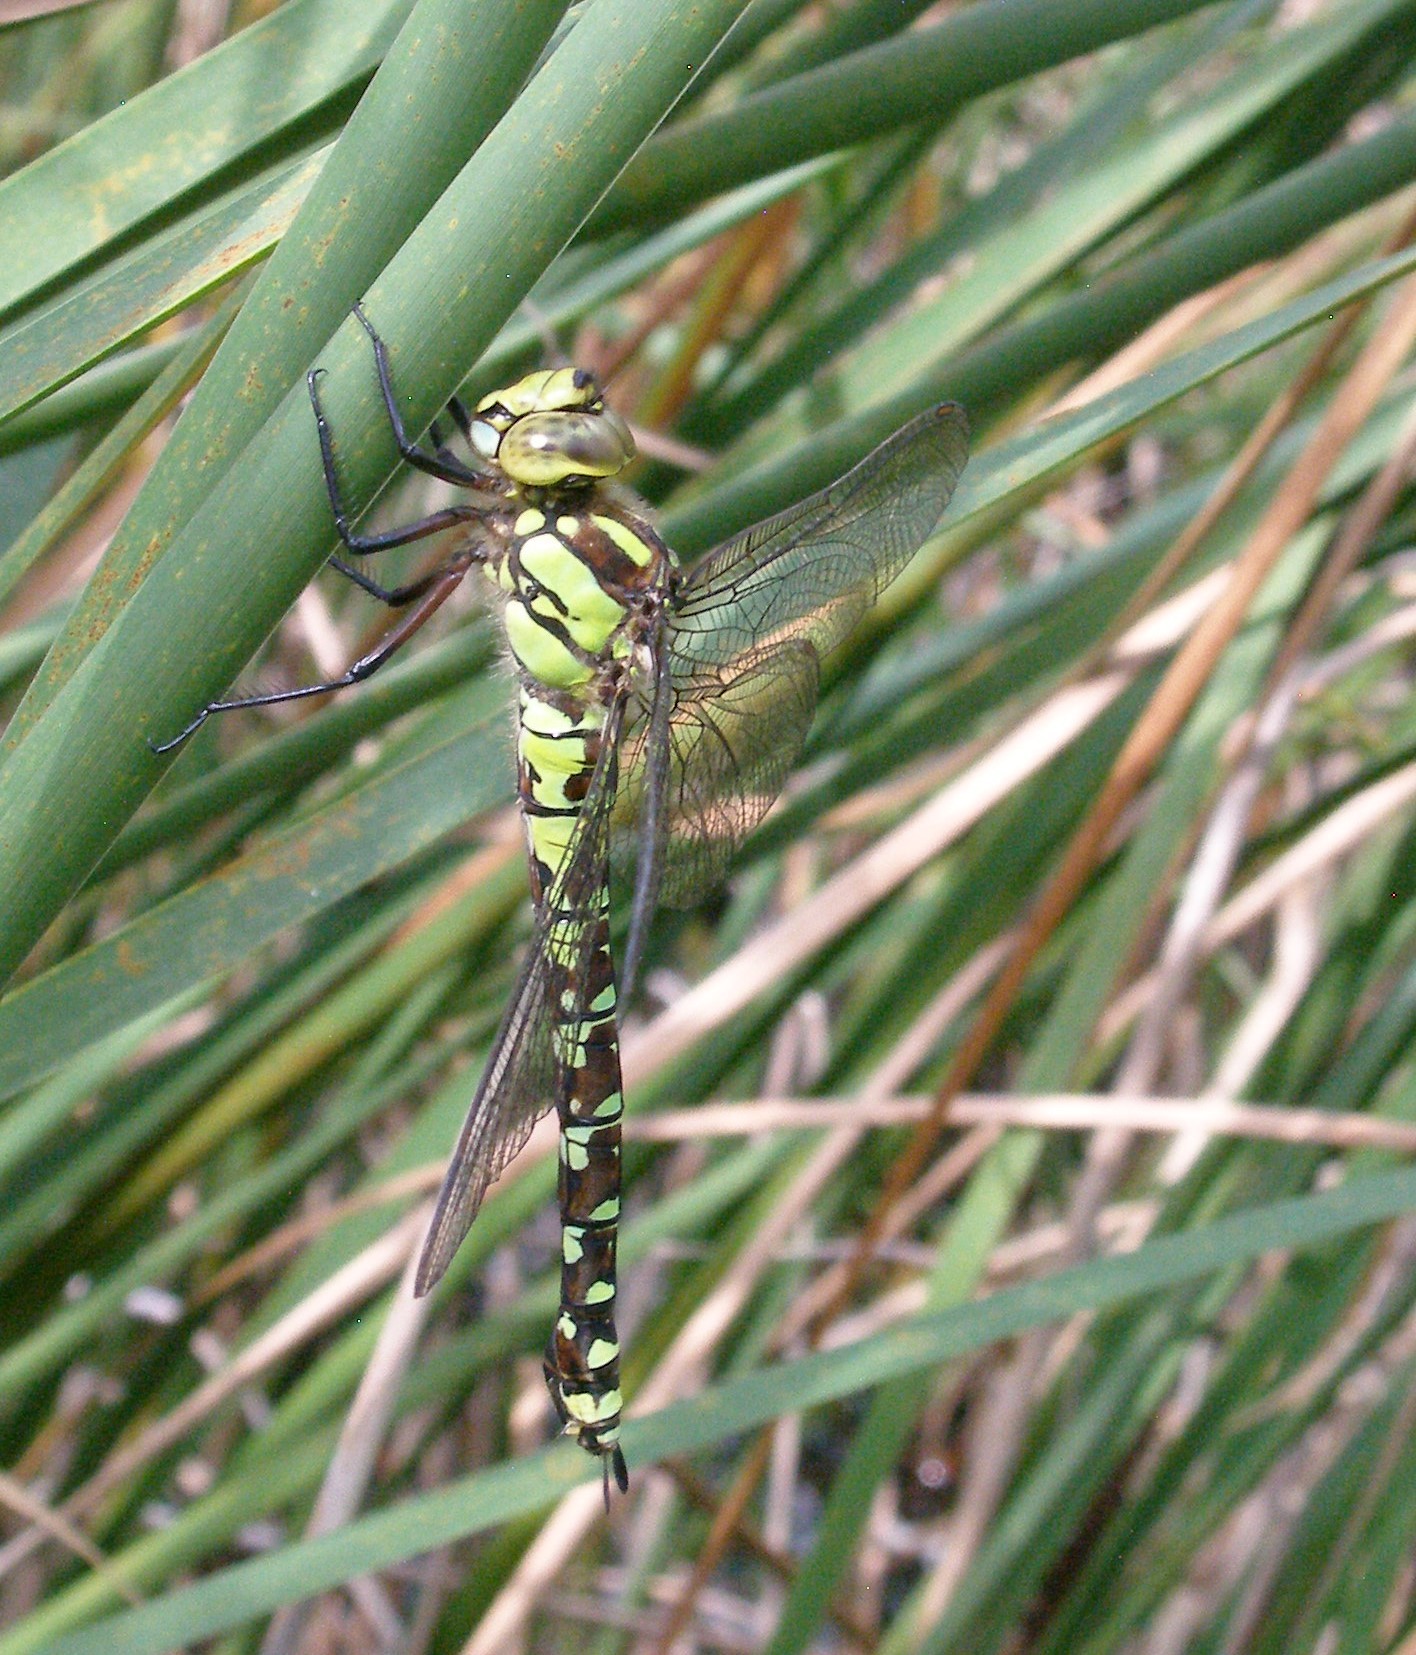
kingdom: Animalia
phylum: Arthropoda
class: Insecta
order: Odonata
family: Aeshnidae
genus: Aeshna
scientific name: Aeshna cyanea
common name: Southern hawker
